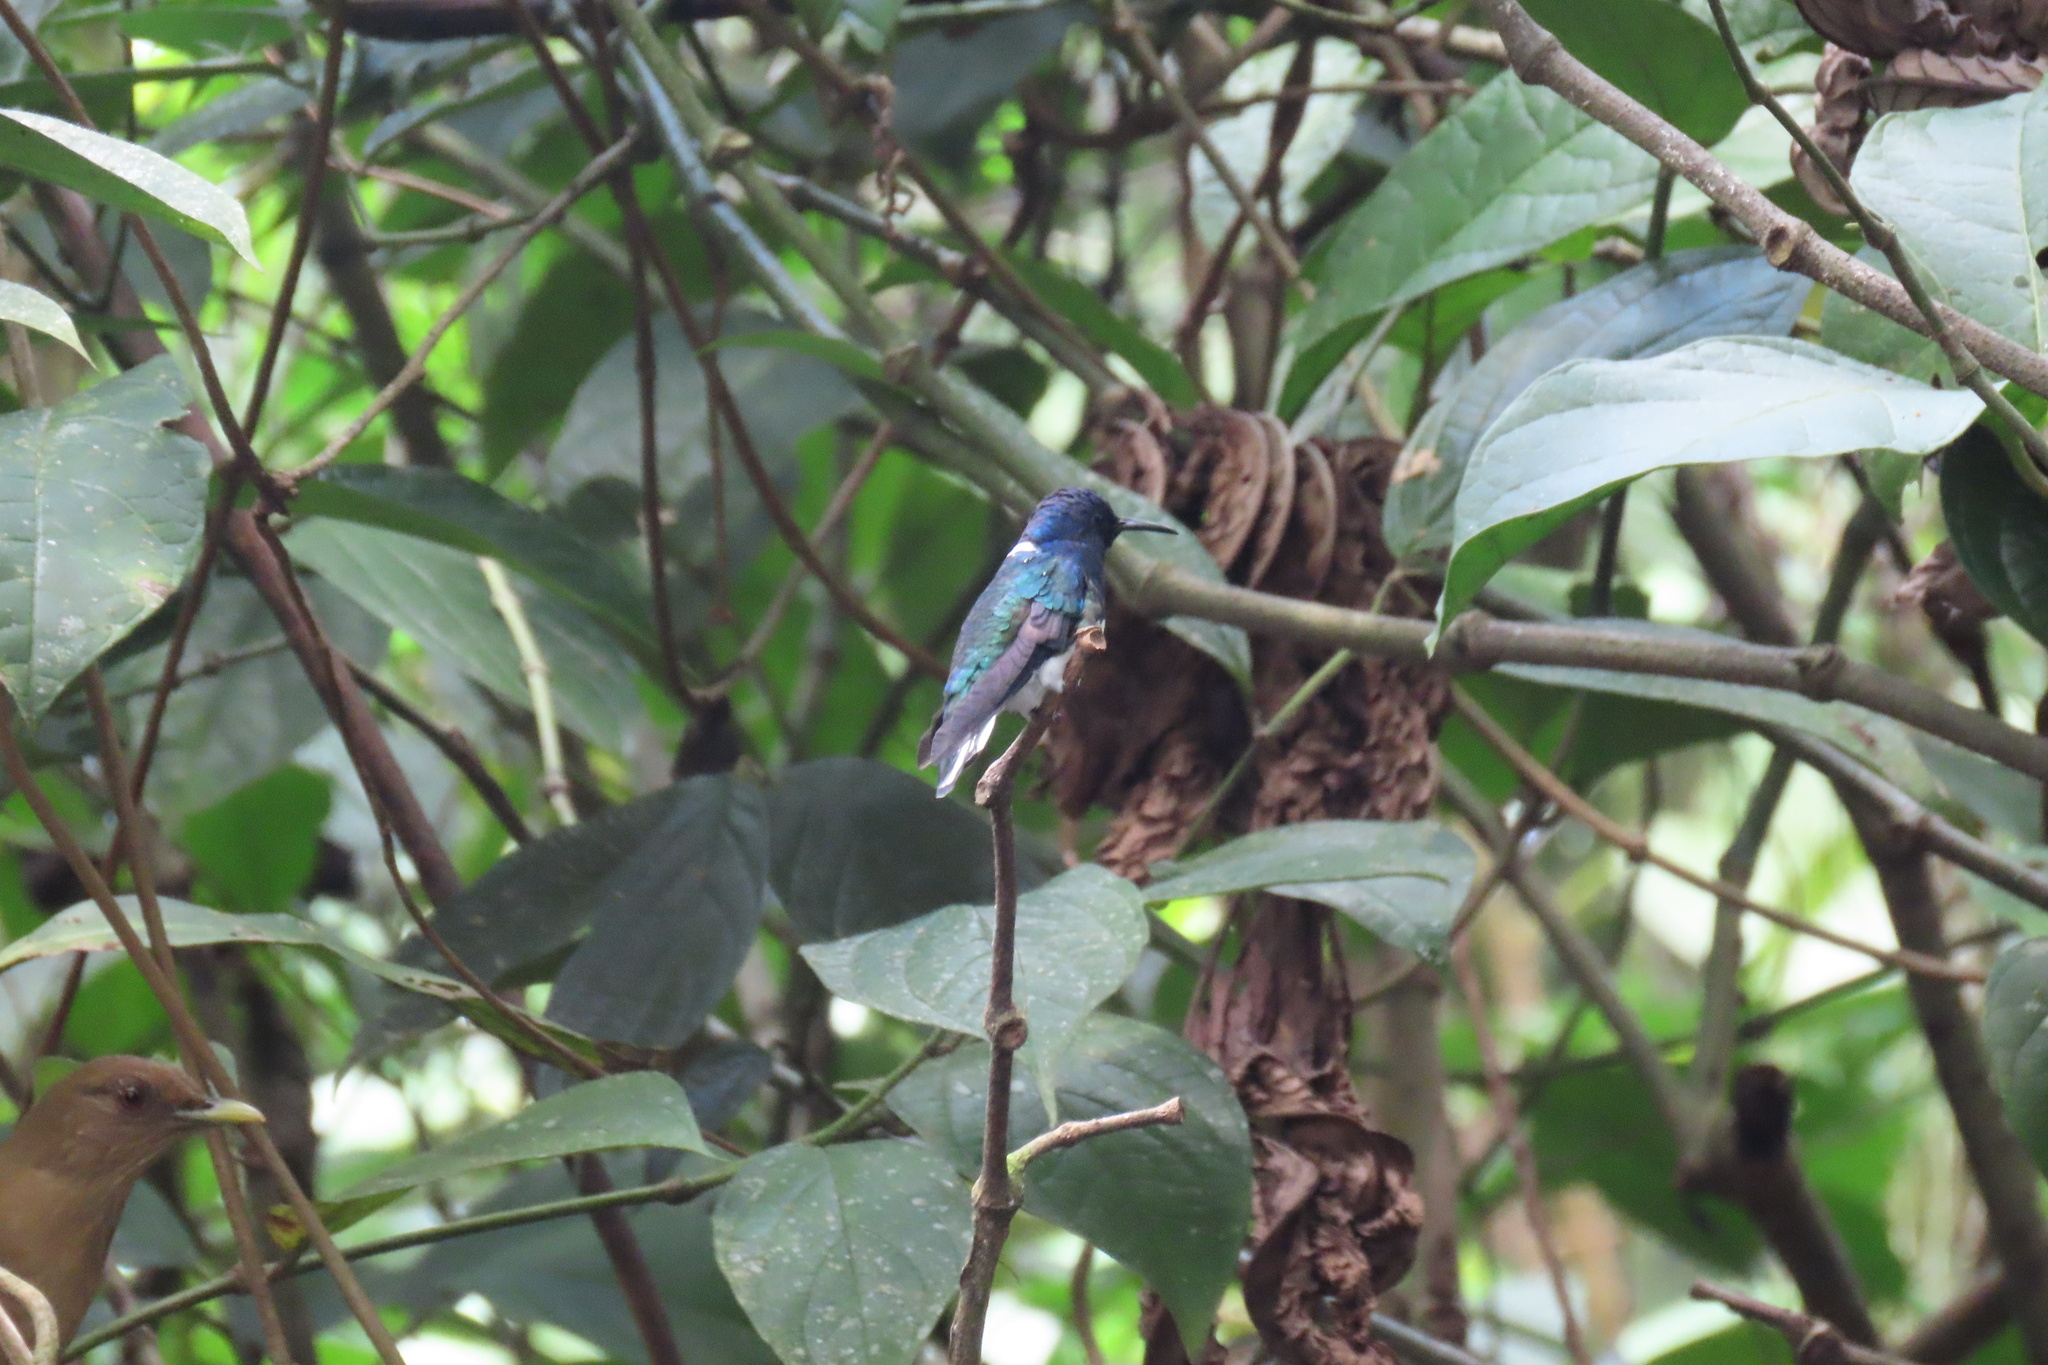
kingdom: Animalia
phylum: Chordata
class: Aves
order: Apodiformes
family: Trochilidae
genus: Florisuga
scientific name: Florisuga mellivora
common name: White-necked jacobin
